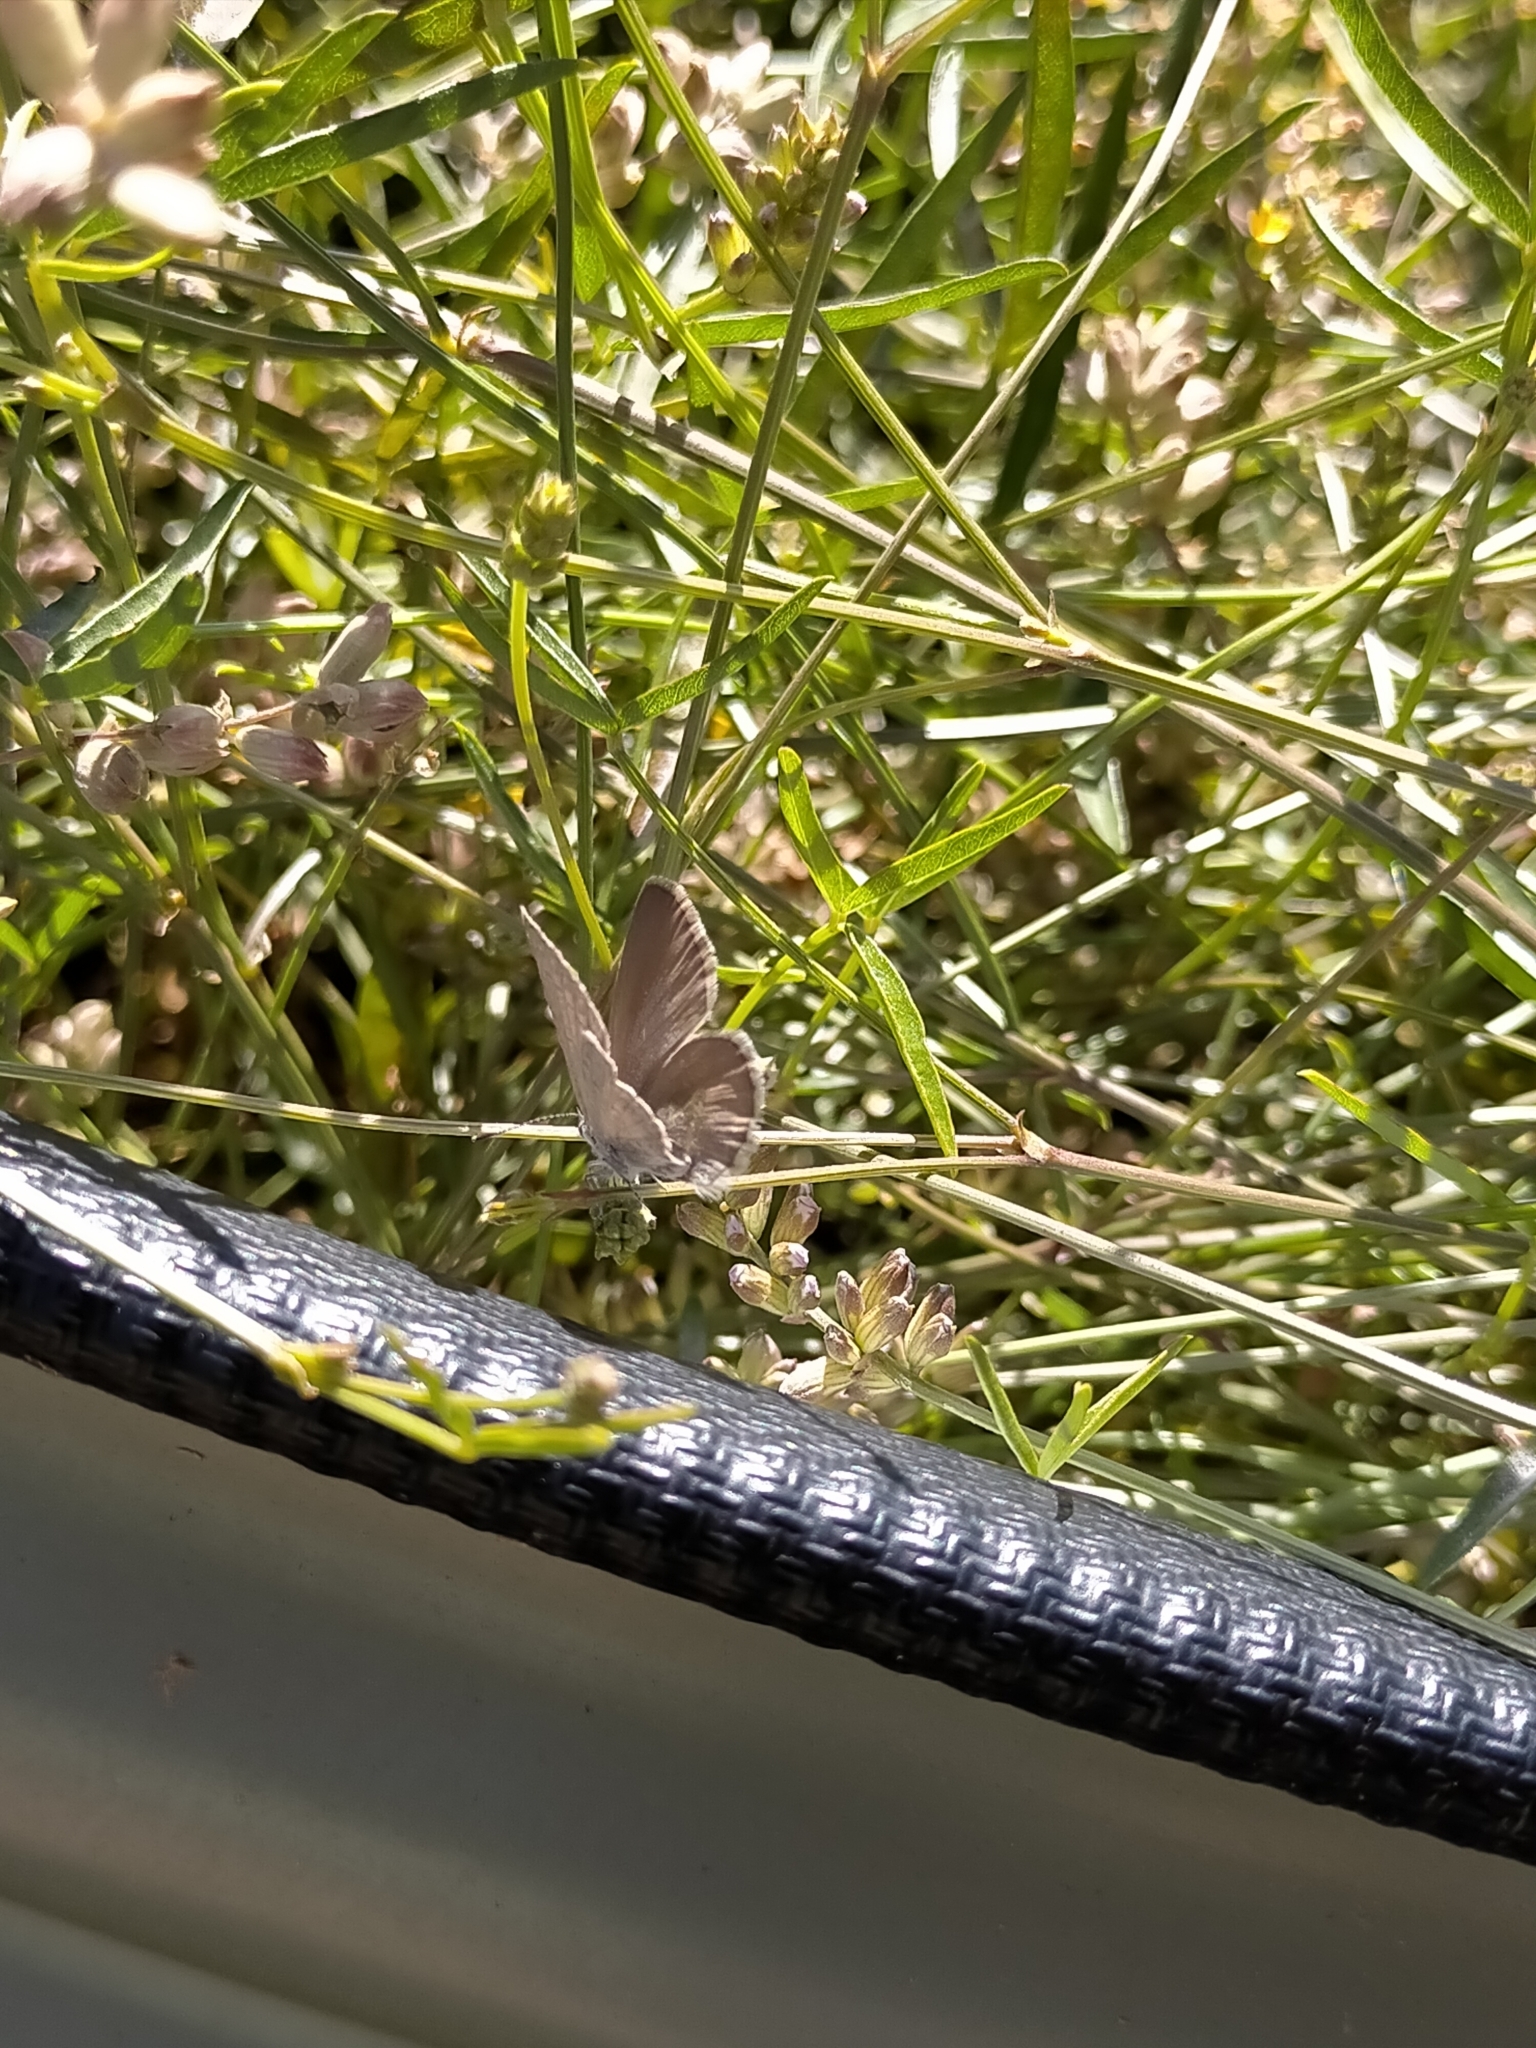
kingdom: Animalia
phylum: Arthropoda
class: Insecta
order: Lepidoptera
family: Lycaenidae
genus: Zizina
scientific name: Zizina labradus
